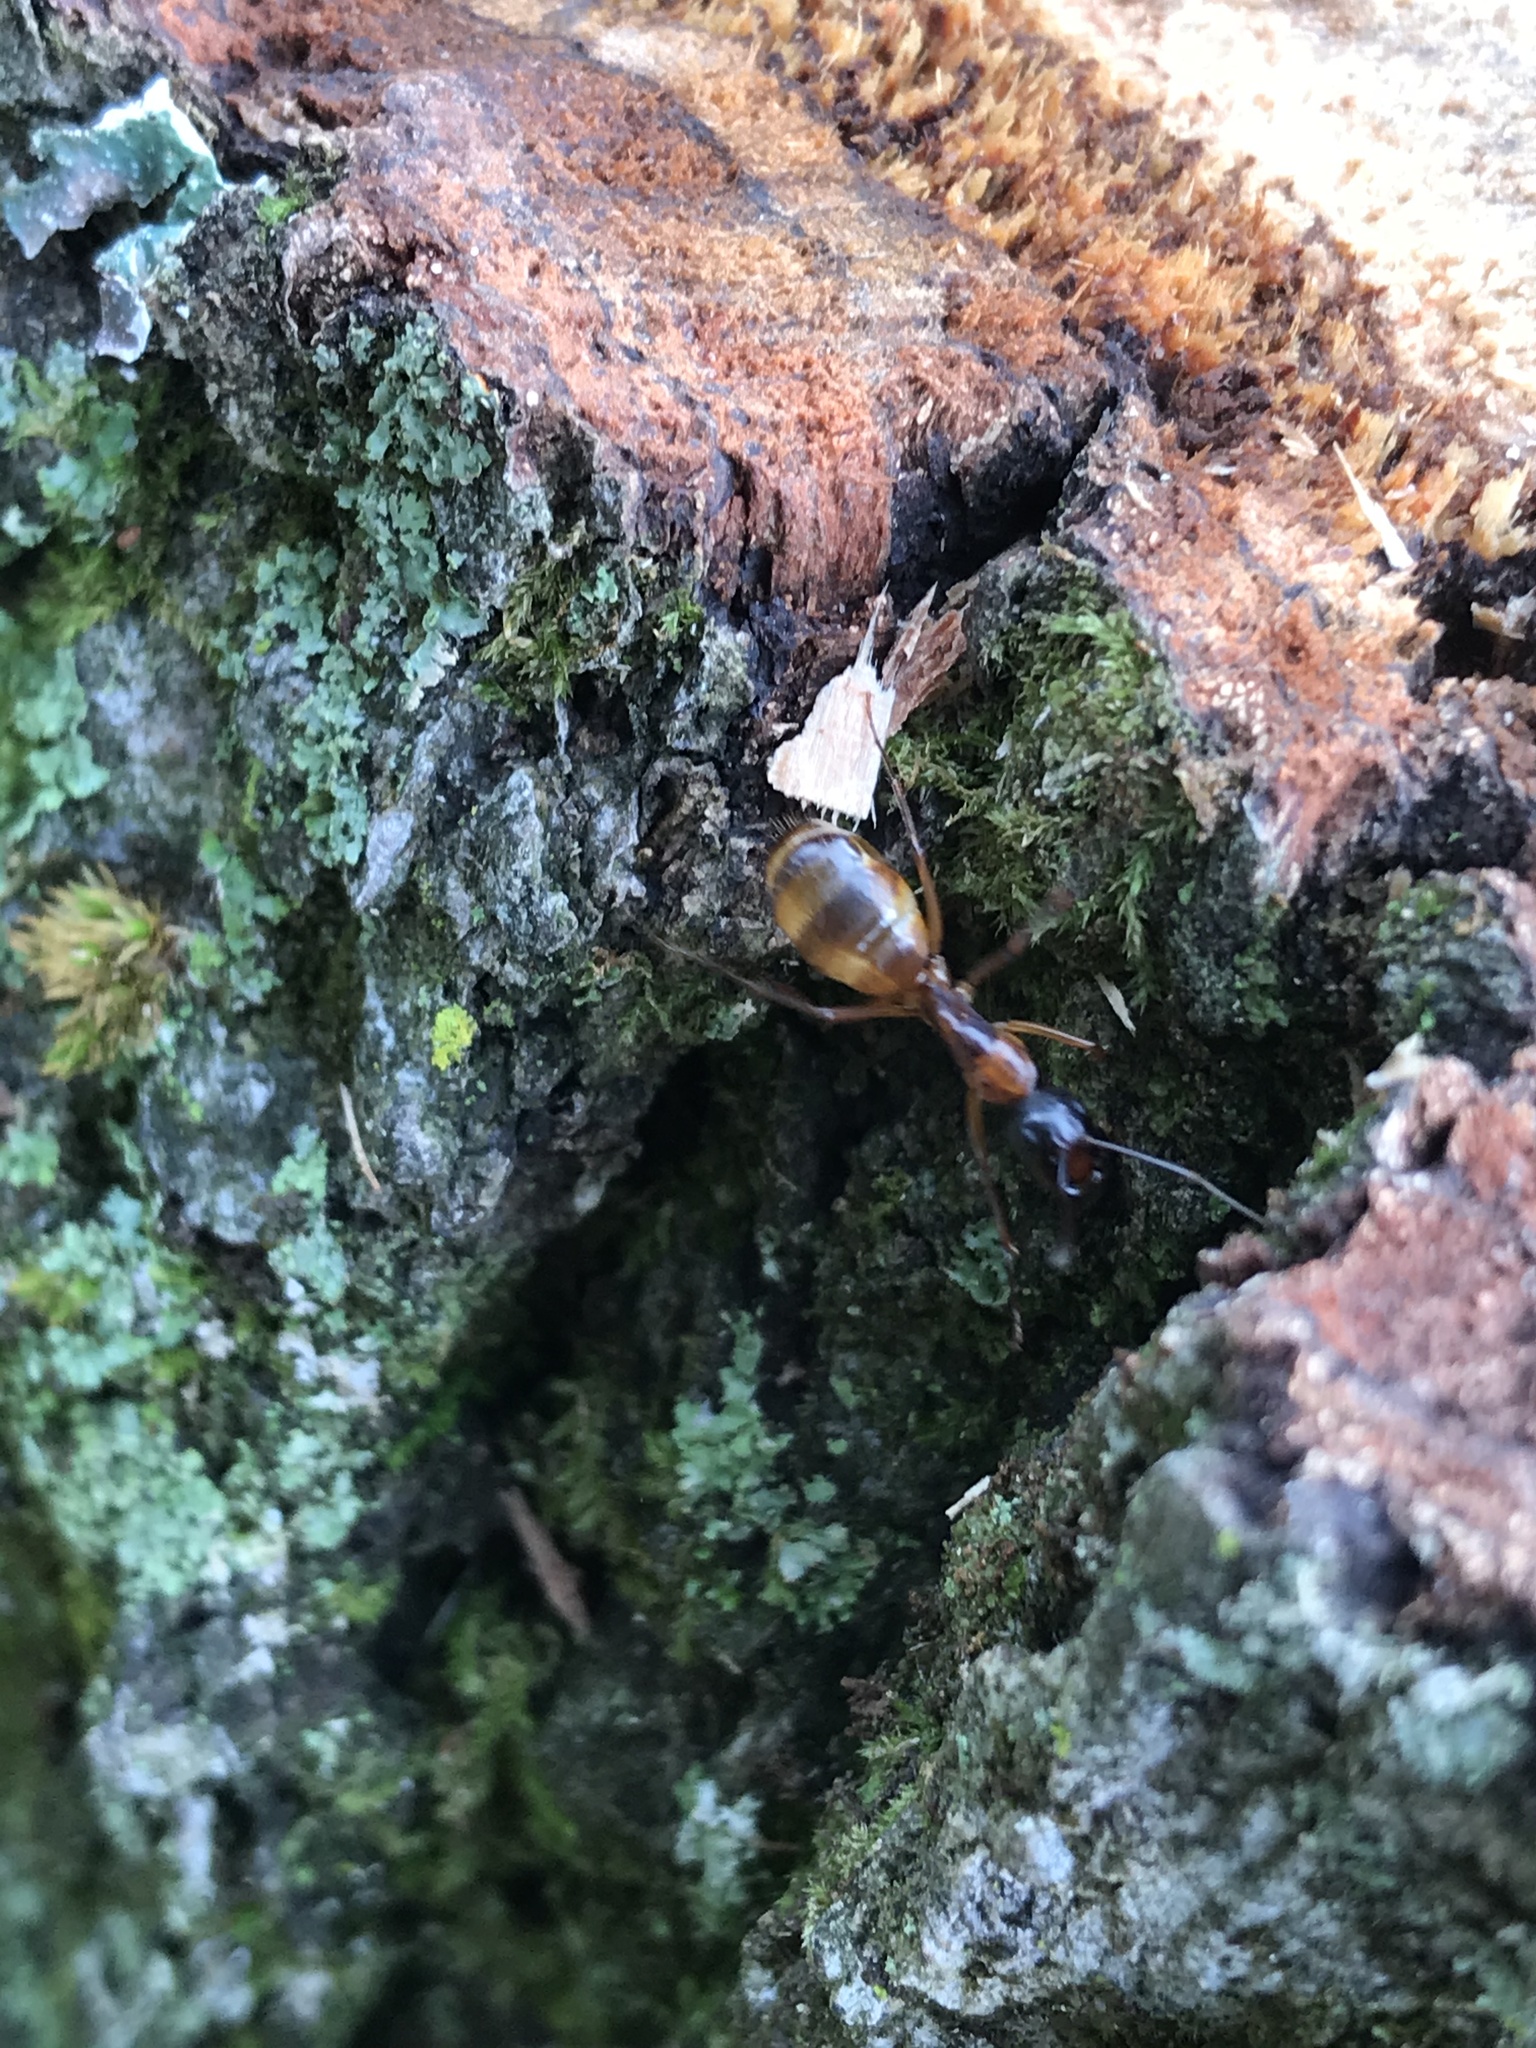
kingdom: Animalia
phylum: Arthropoda
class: Insecta
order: Hymenoptera
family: Formicidae
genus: Camponotus
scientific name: Camponotus americanus
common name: American carpenter ant
